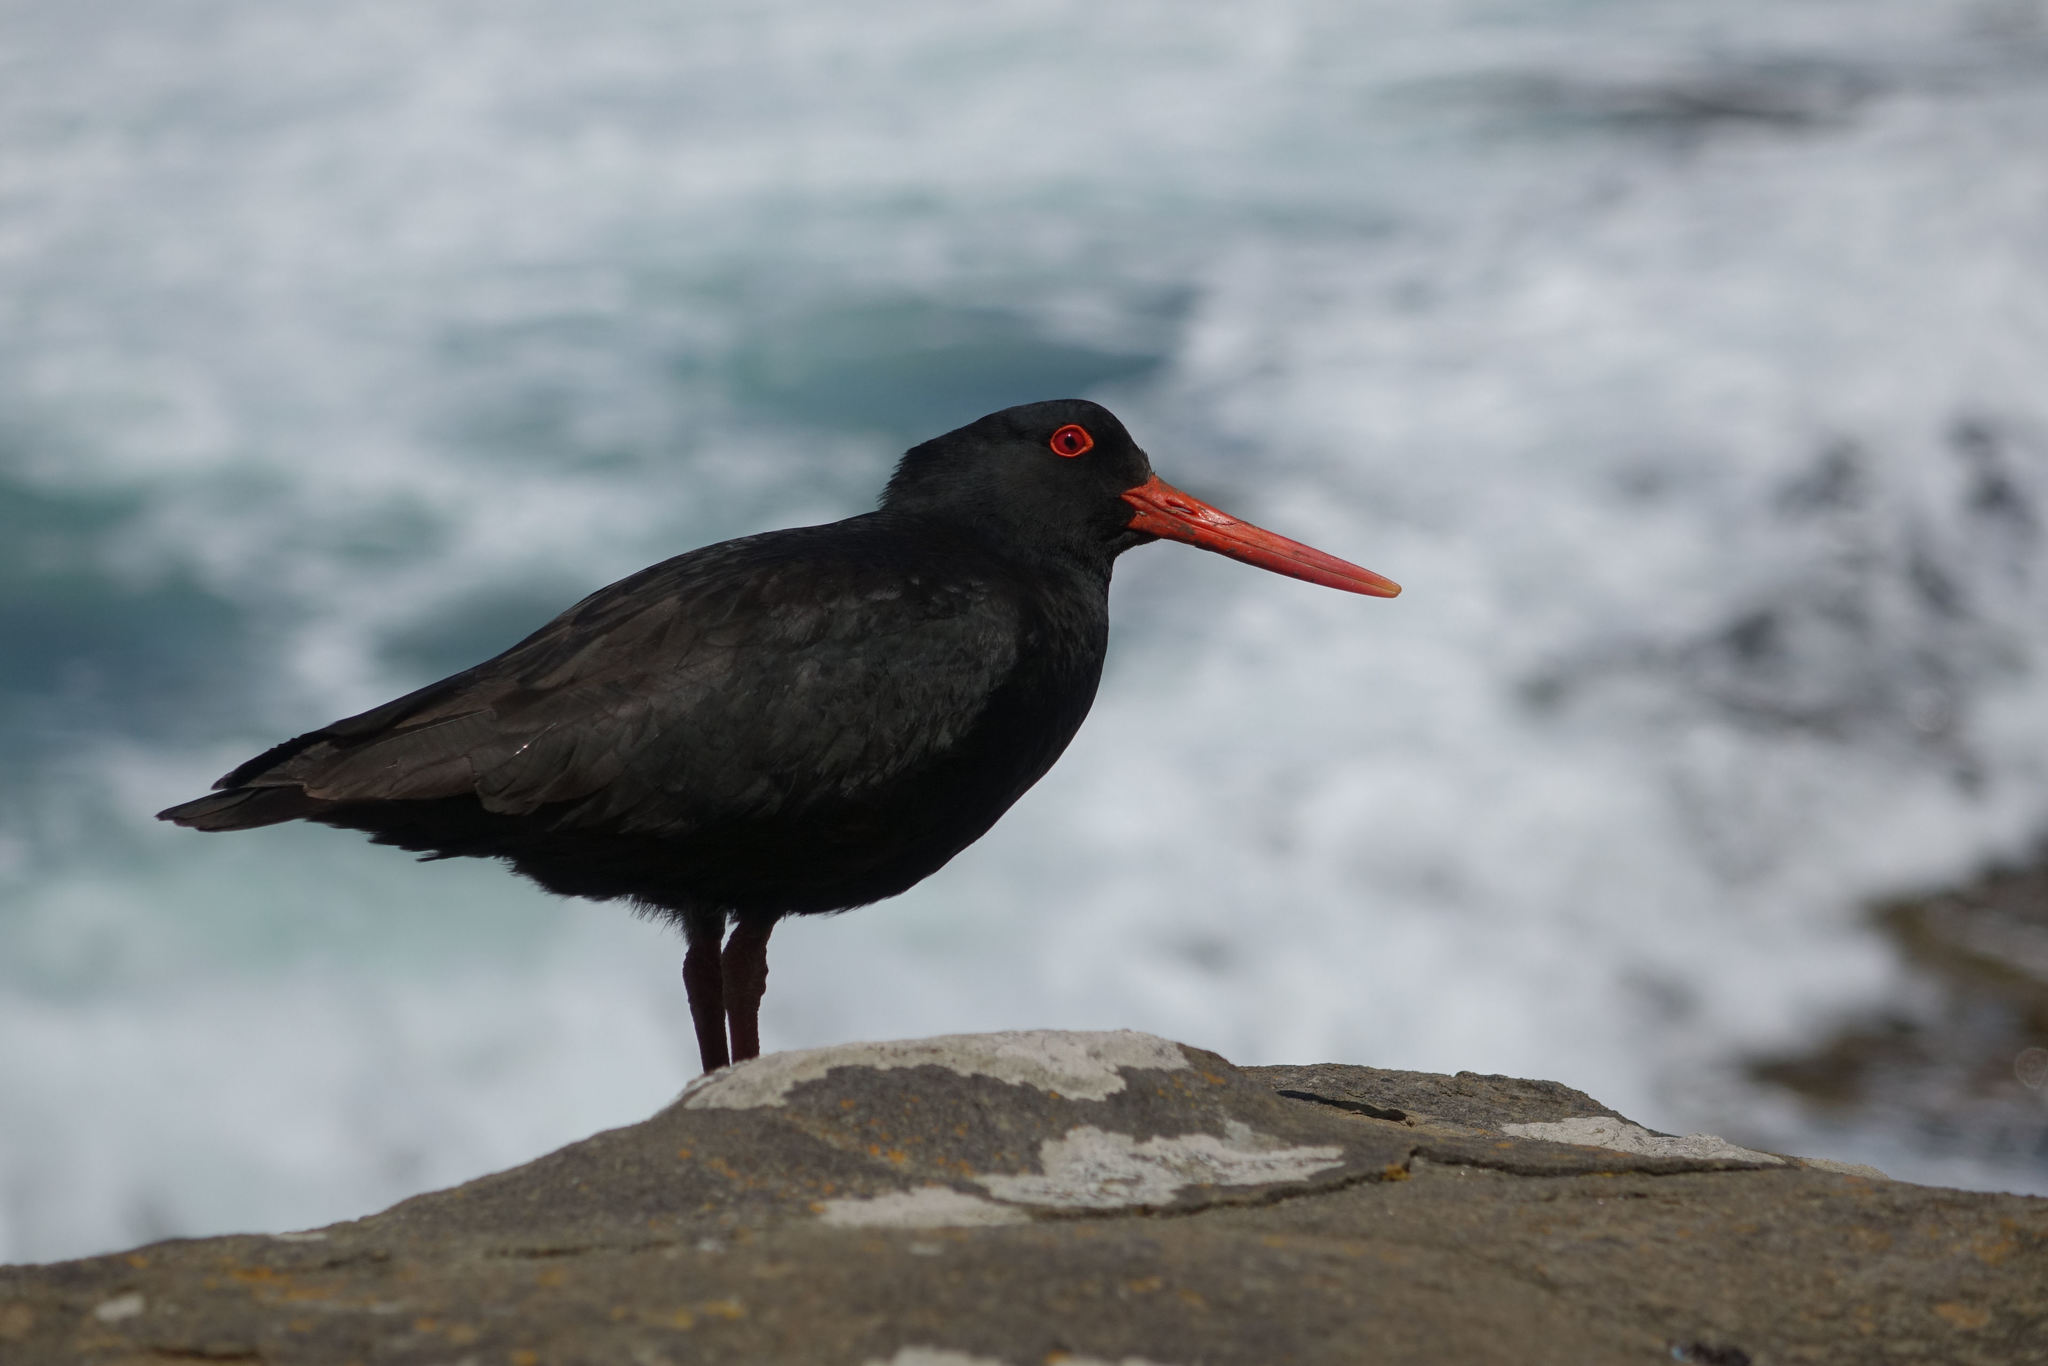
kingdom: Animalia
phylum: Chordata
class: Aves
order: Charadriiformes
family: Haematopodidae
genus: Haematopus
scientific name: Haematopus unicolor
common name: Variable oystercatcher
